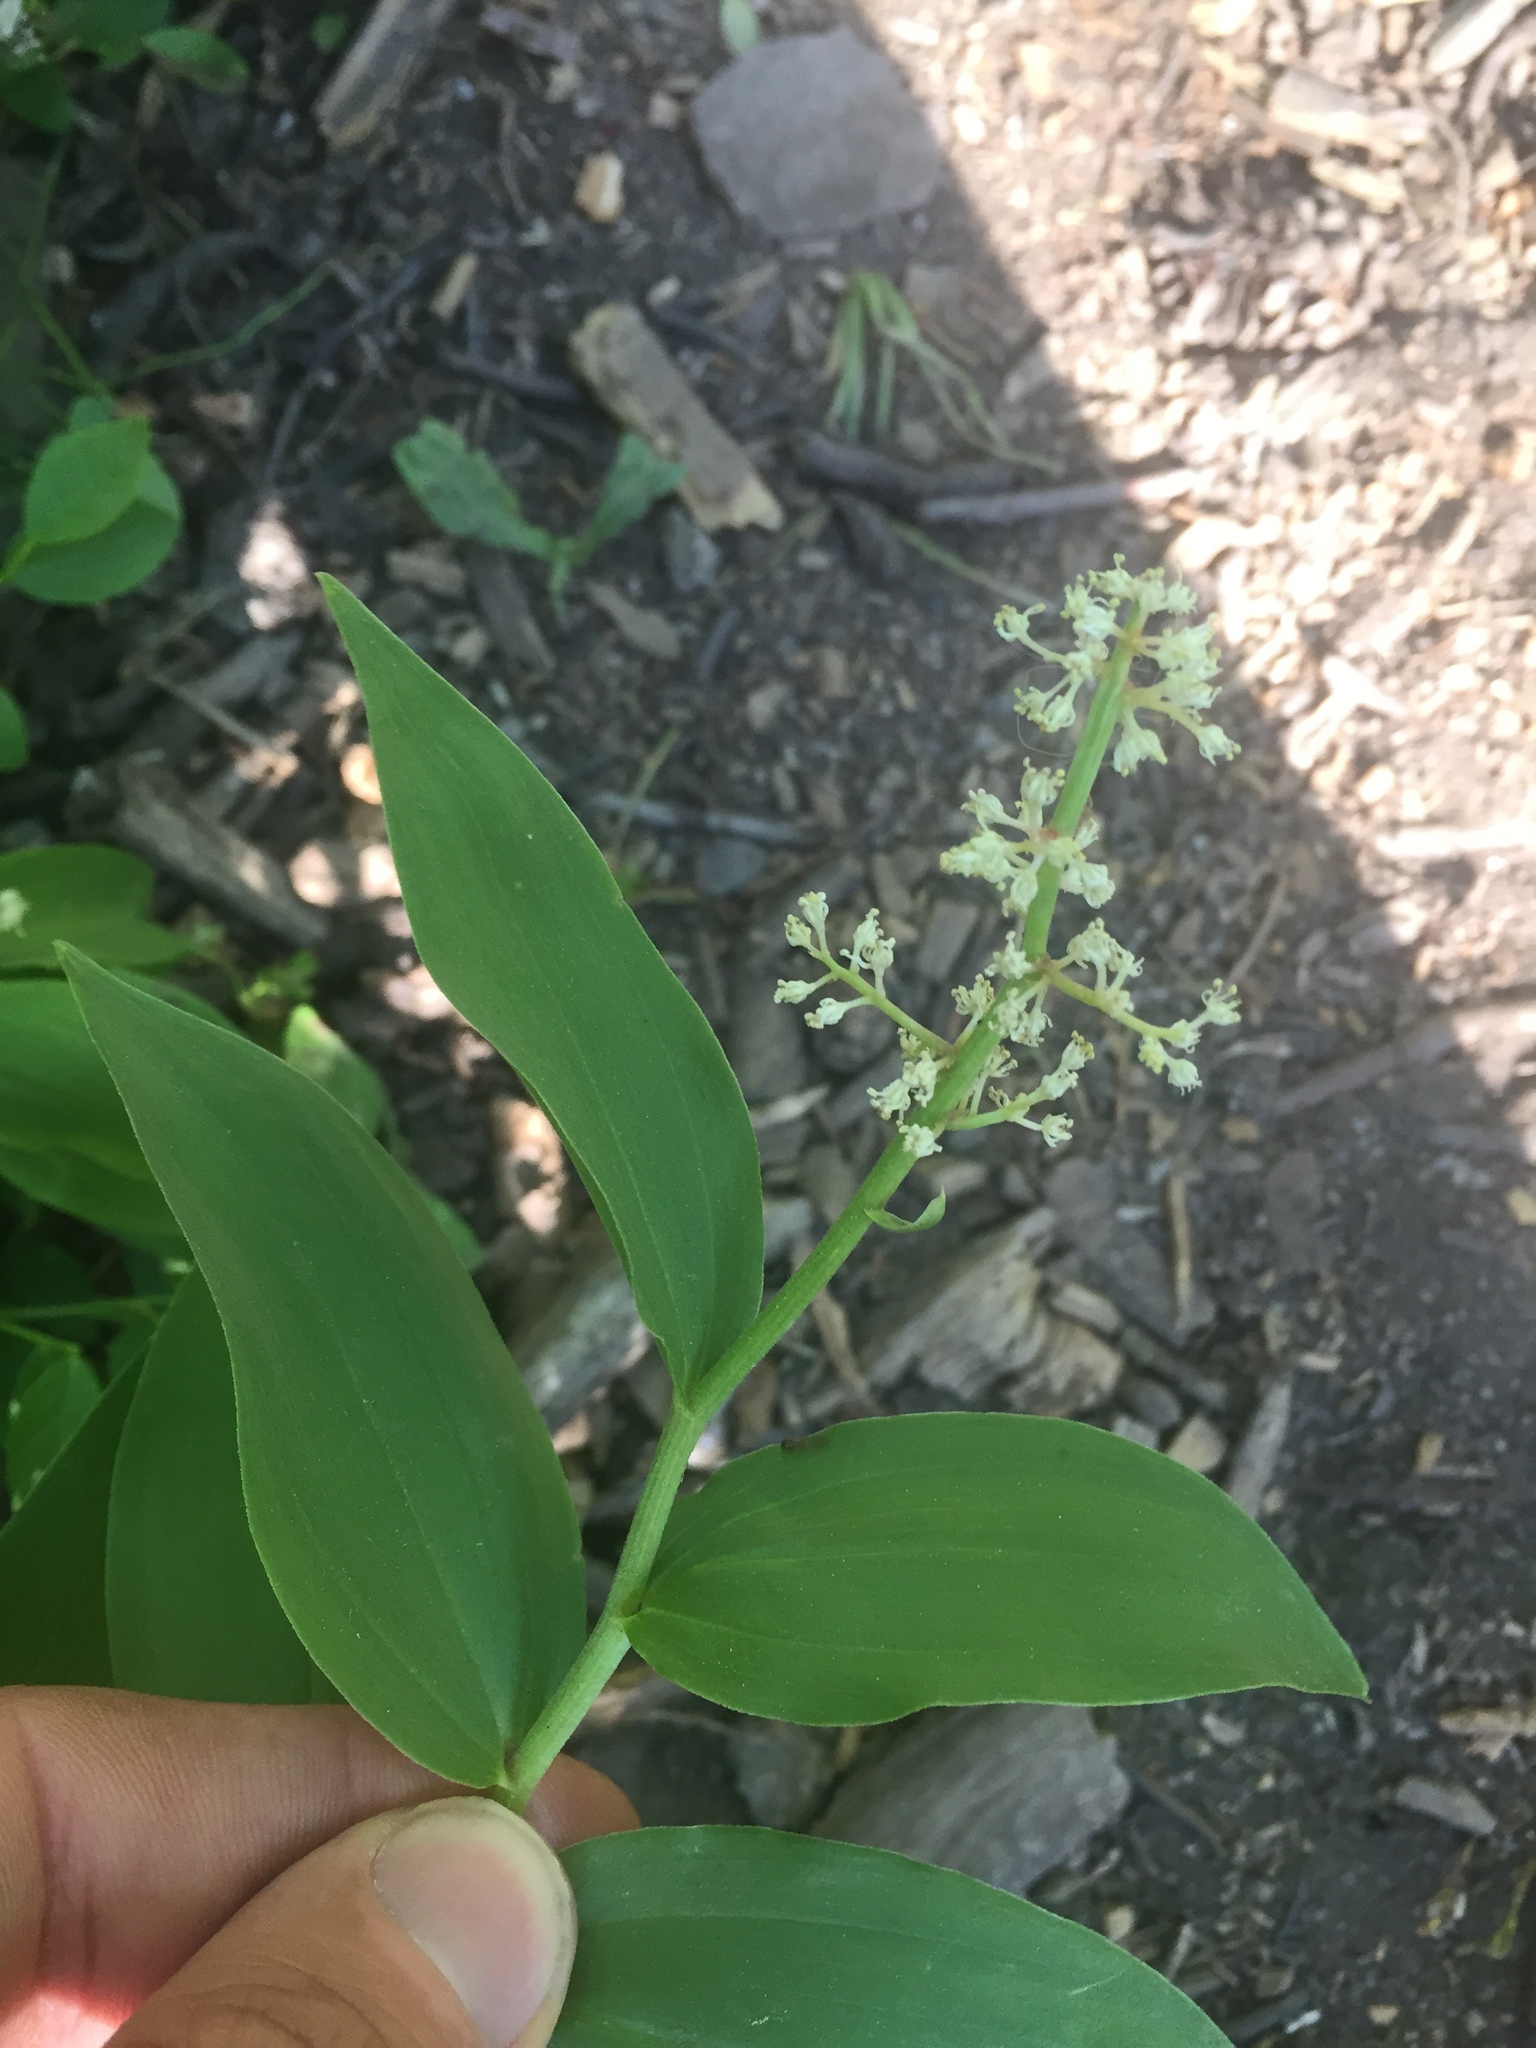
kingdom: Plantae
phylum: Tracheophyta
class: Liliopsida
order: Asparagales
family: Asparagaceae
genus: Maianthemum
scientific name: Maianthemum racemosum
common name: False spikenard
